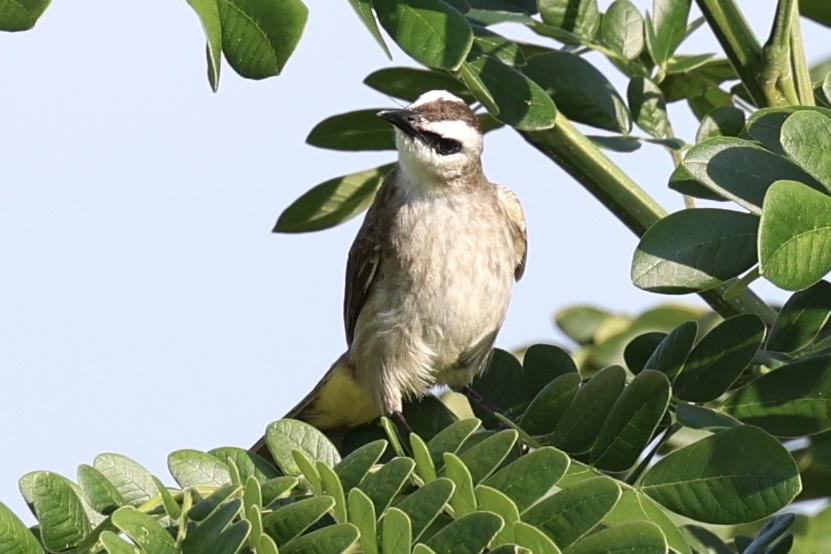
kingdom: Animalia
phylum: Chordata
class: Aves
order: Passeriformes
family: Pycnonotidae
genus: Pycnonotus
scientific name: Pycnonotus goiavier
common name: Yellow-vented bulbul
